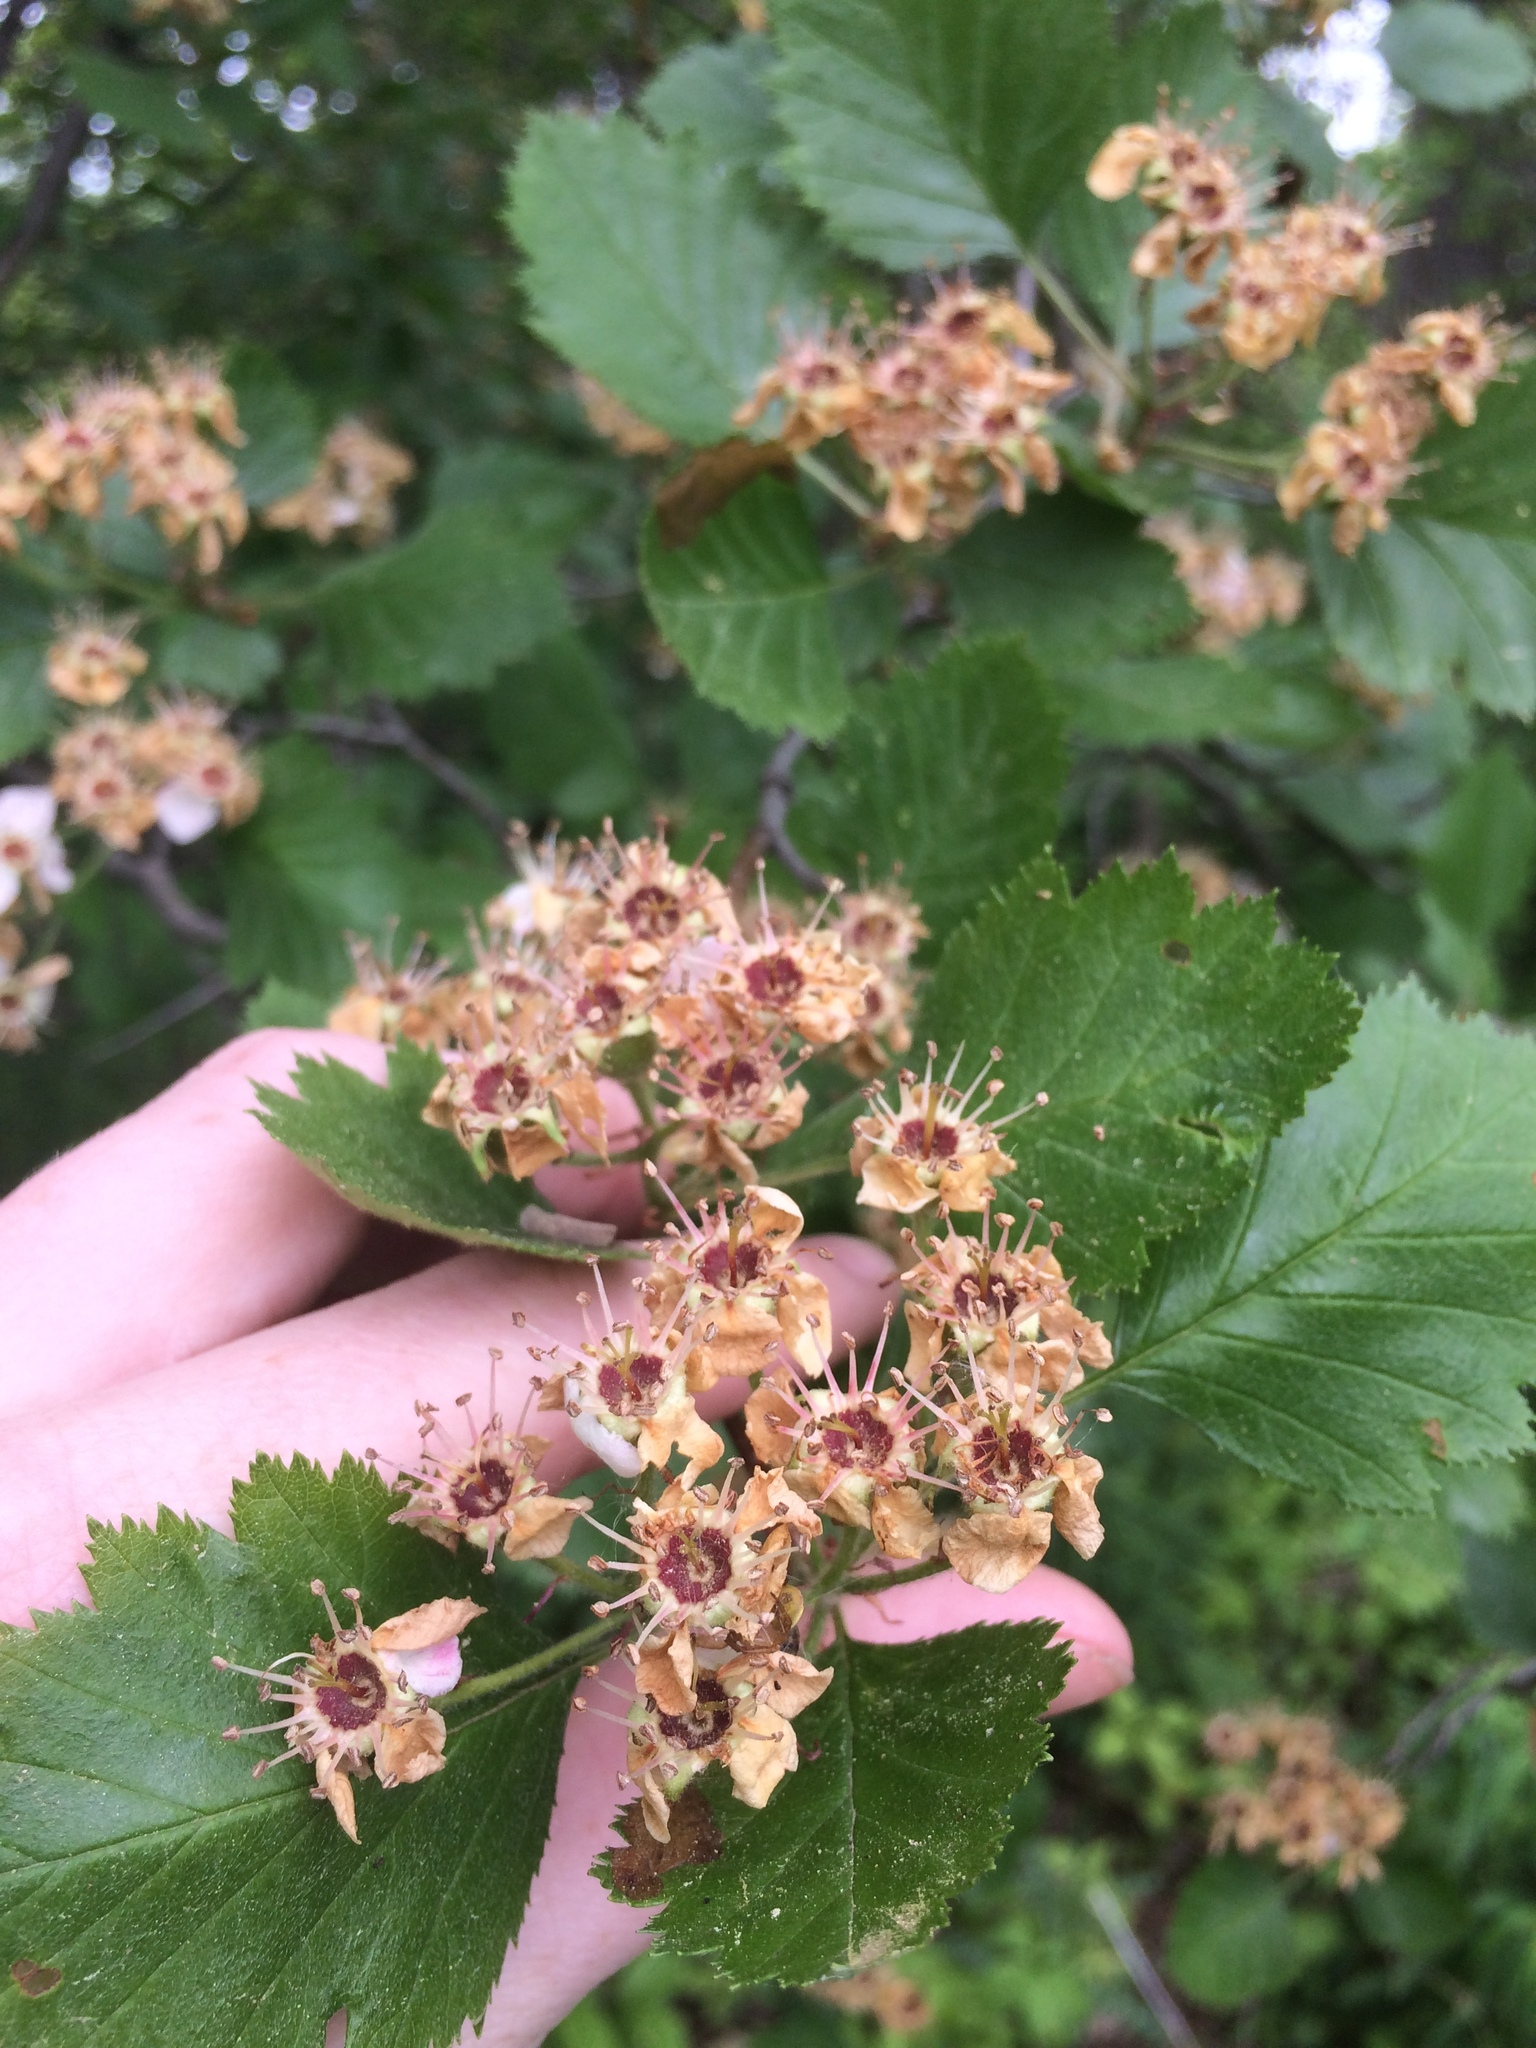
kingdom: Plantae
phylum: Tracheophyta
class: Magnoliopsida
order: Rosales
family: Rosaceae
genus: Crataegus
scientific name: Crataegus submollis
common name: Hairy cockspurthorn
